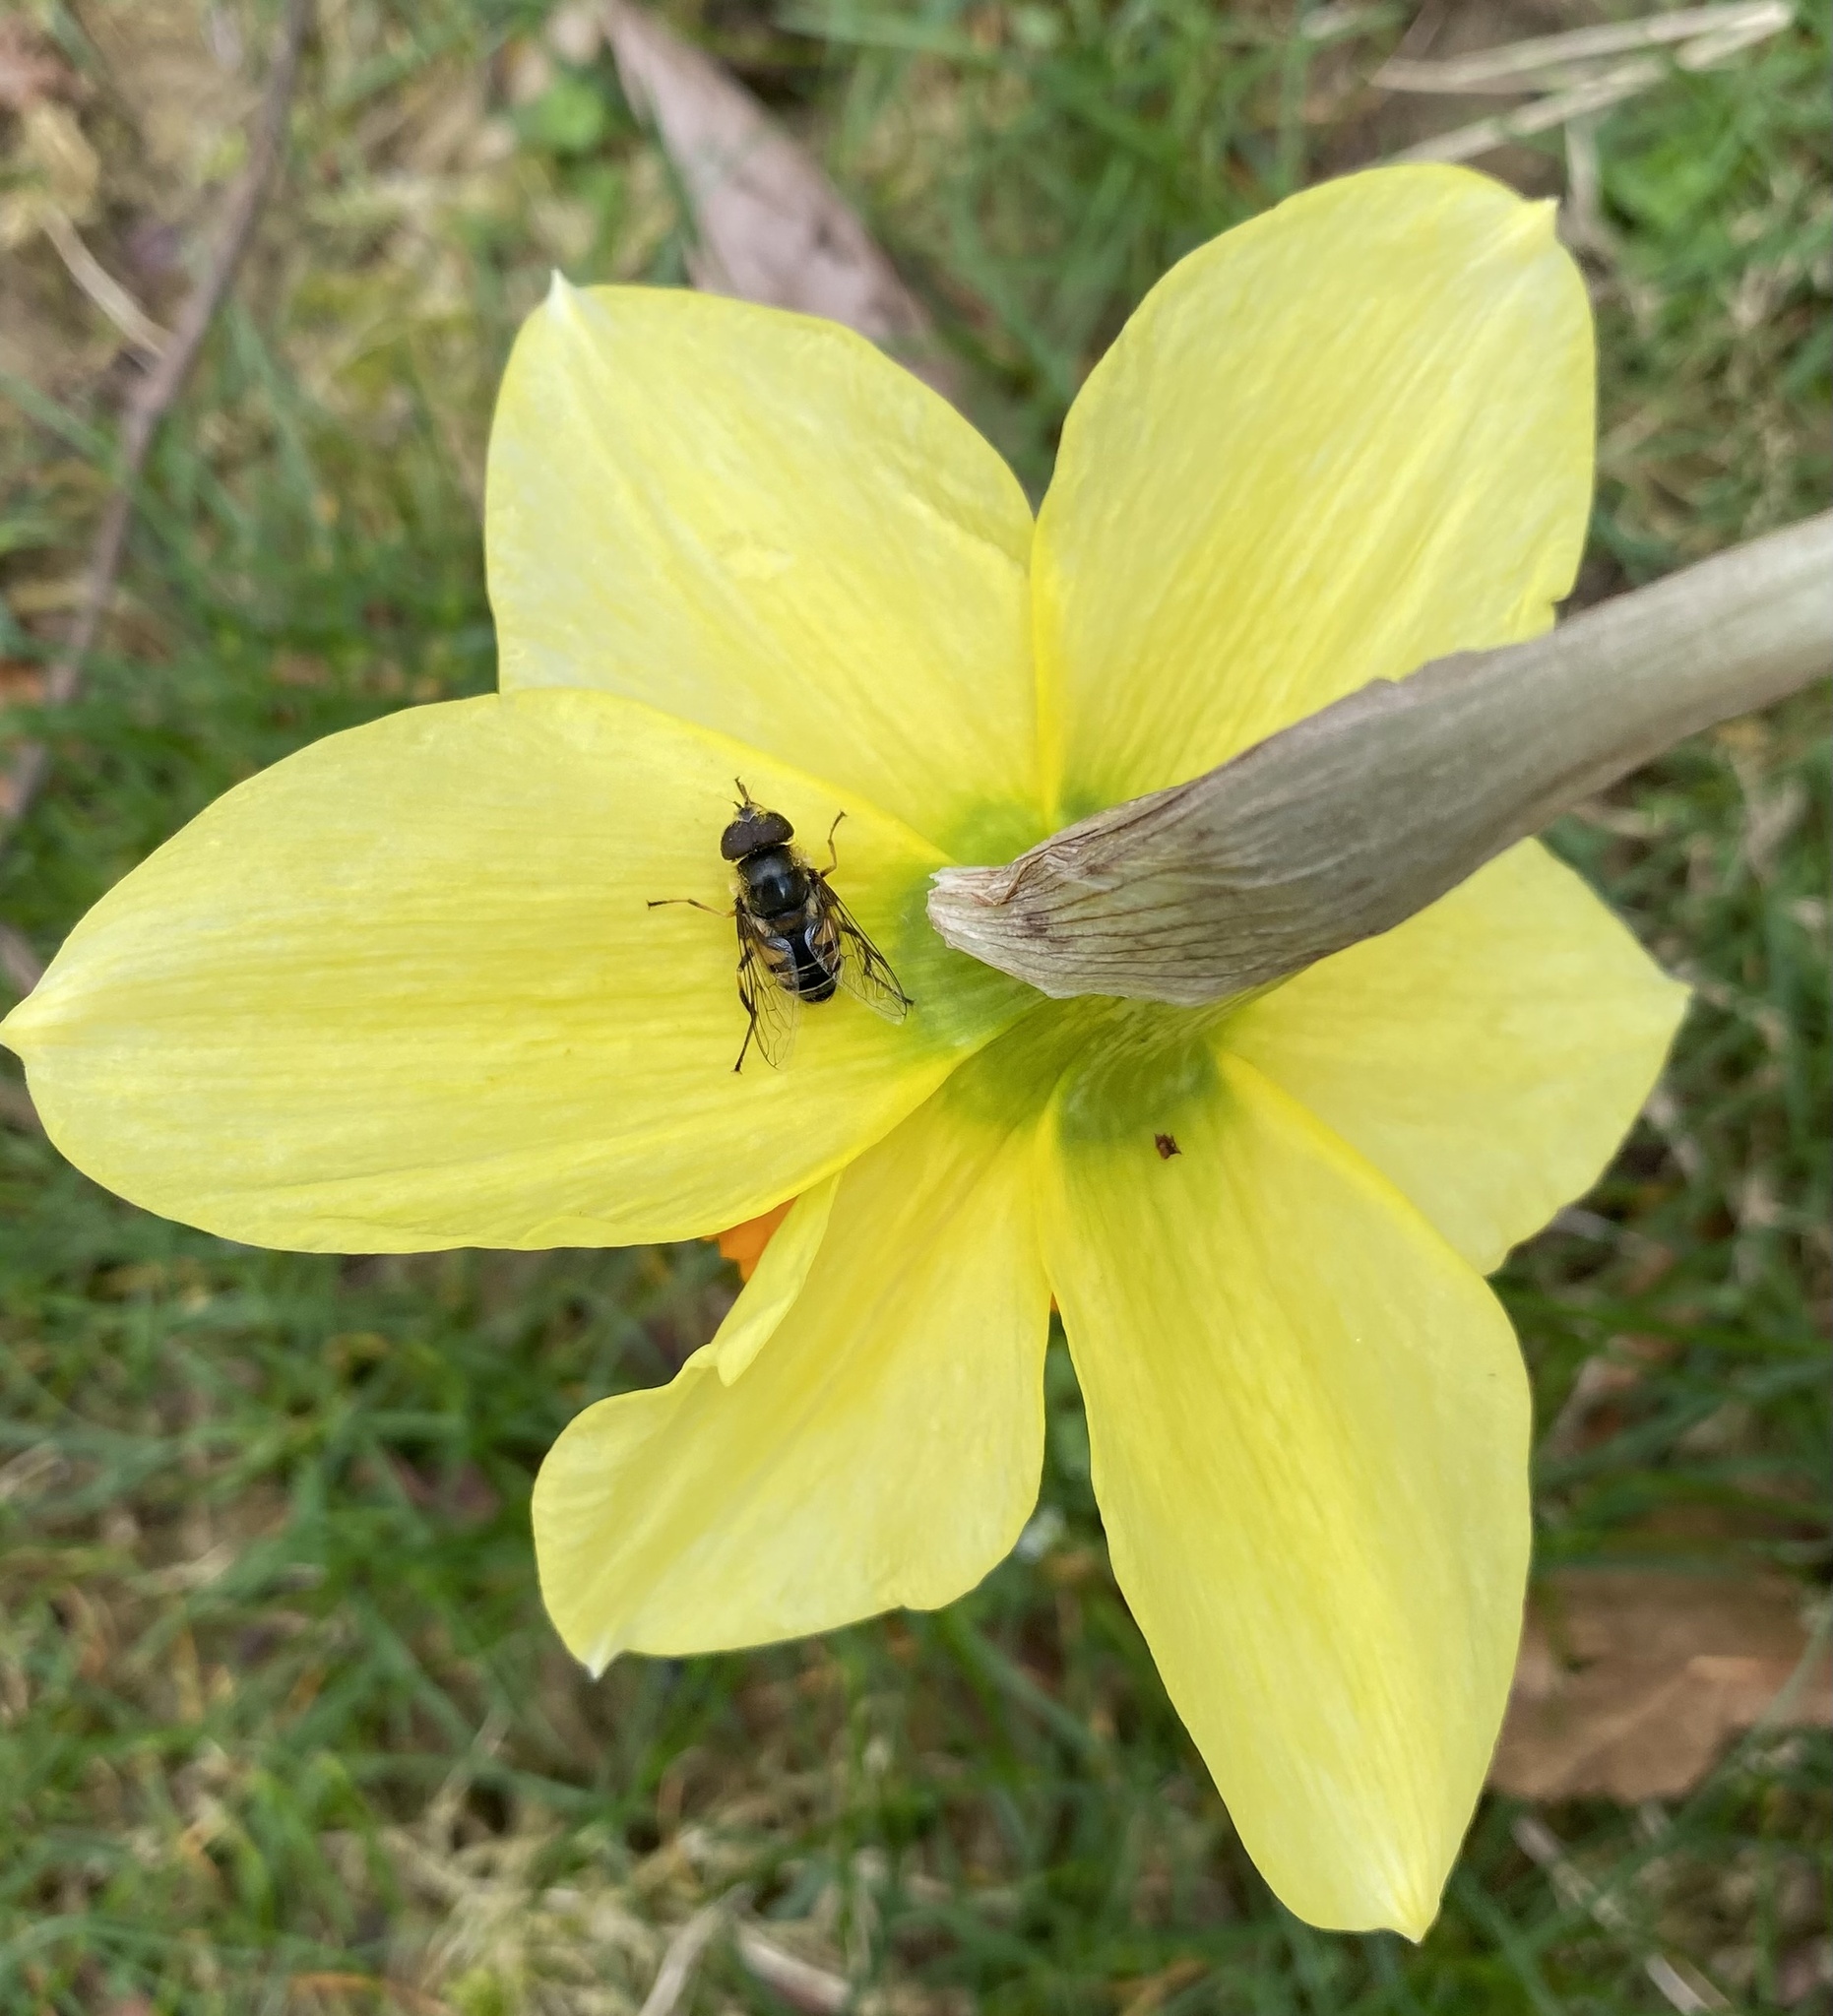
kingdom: Animalia
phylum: Arthropoda
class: Insecta
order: Diptera
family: Syrphidae
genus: Eristalis
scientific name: Eristalis dimidiata
